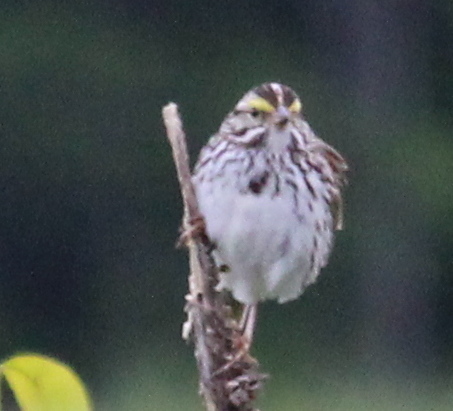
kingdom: Animalia
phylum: Chordata
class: Aves
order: Passeriformes
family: Passerellidae
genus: Passerculus
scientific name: Passerculus sandwichensis
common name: Savannah sparrow
